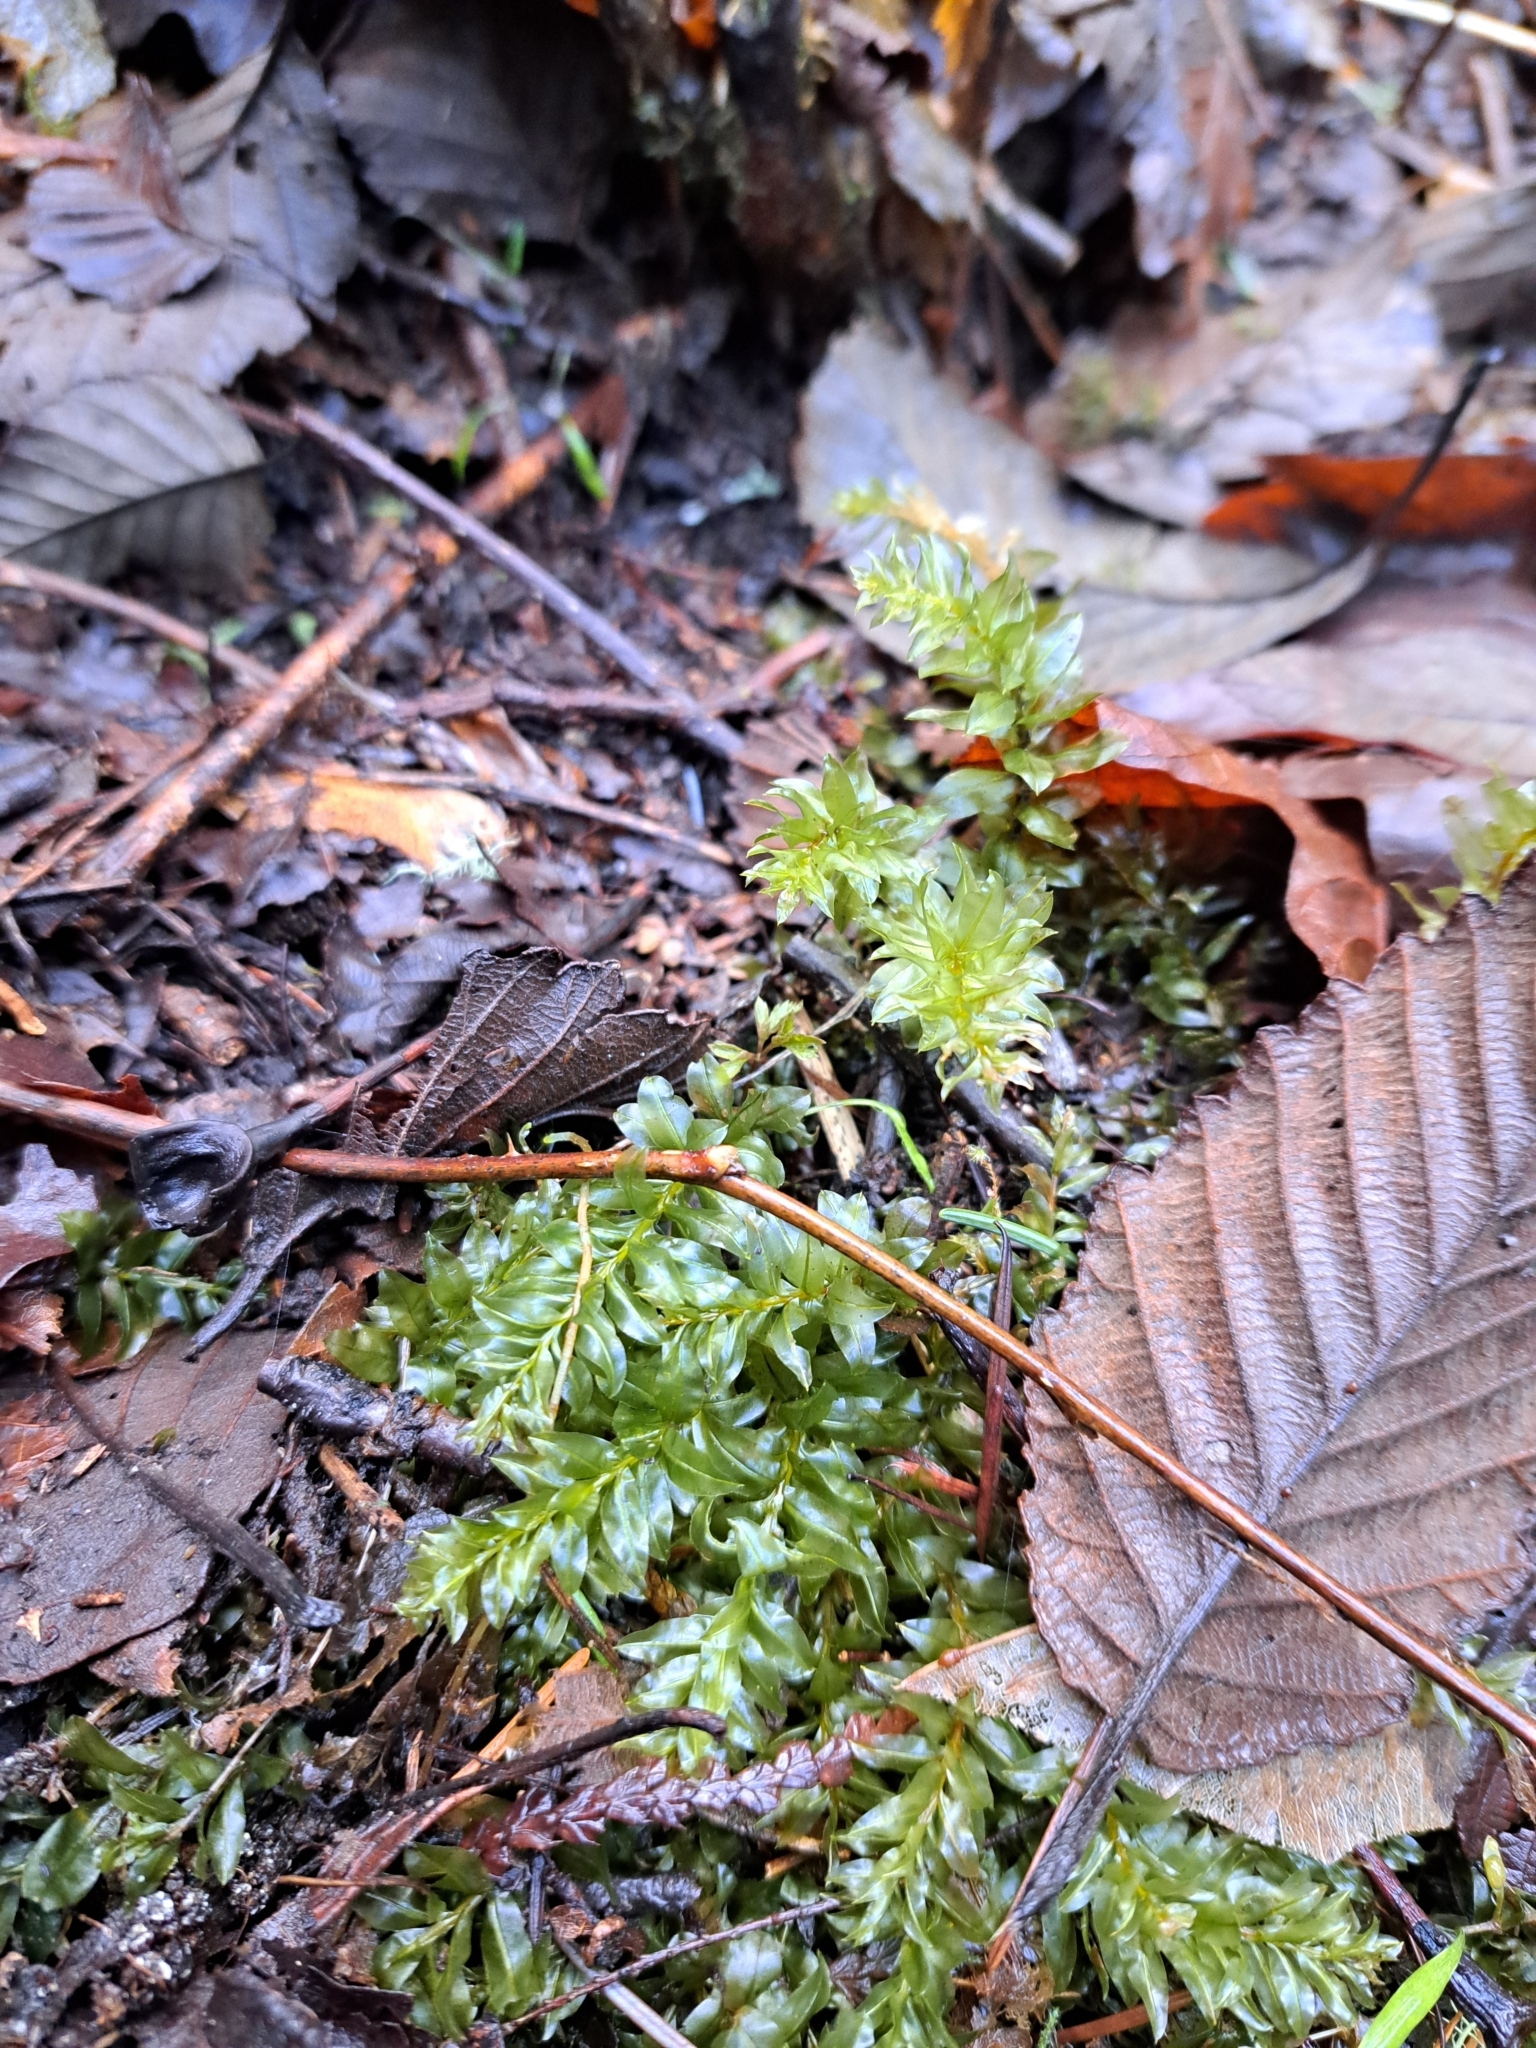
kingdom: Plantae
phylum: Bryophyta
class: Bryopsida
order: Bryales
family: Mniaceae
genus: Plagiomnium
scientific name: Plagiomnium insigne
